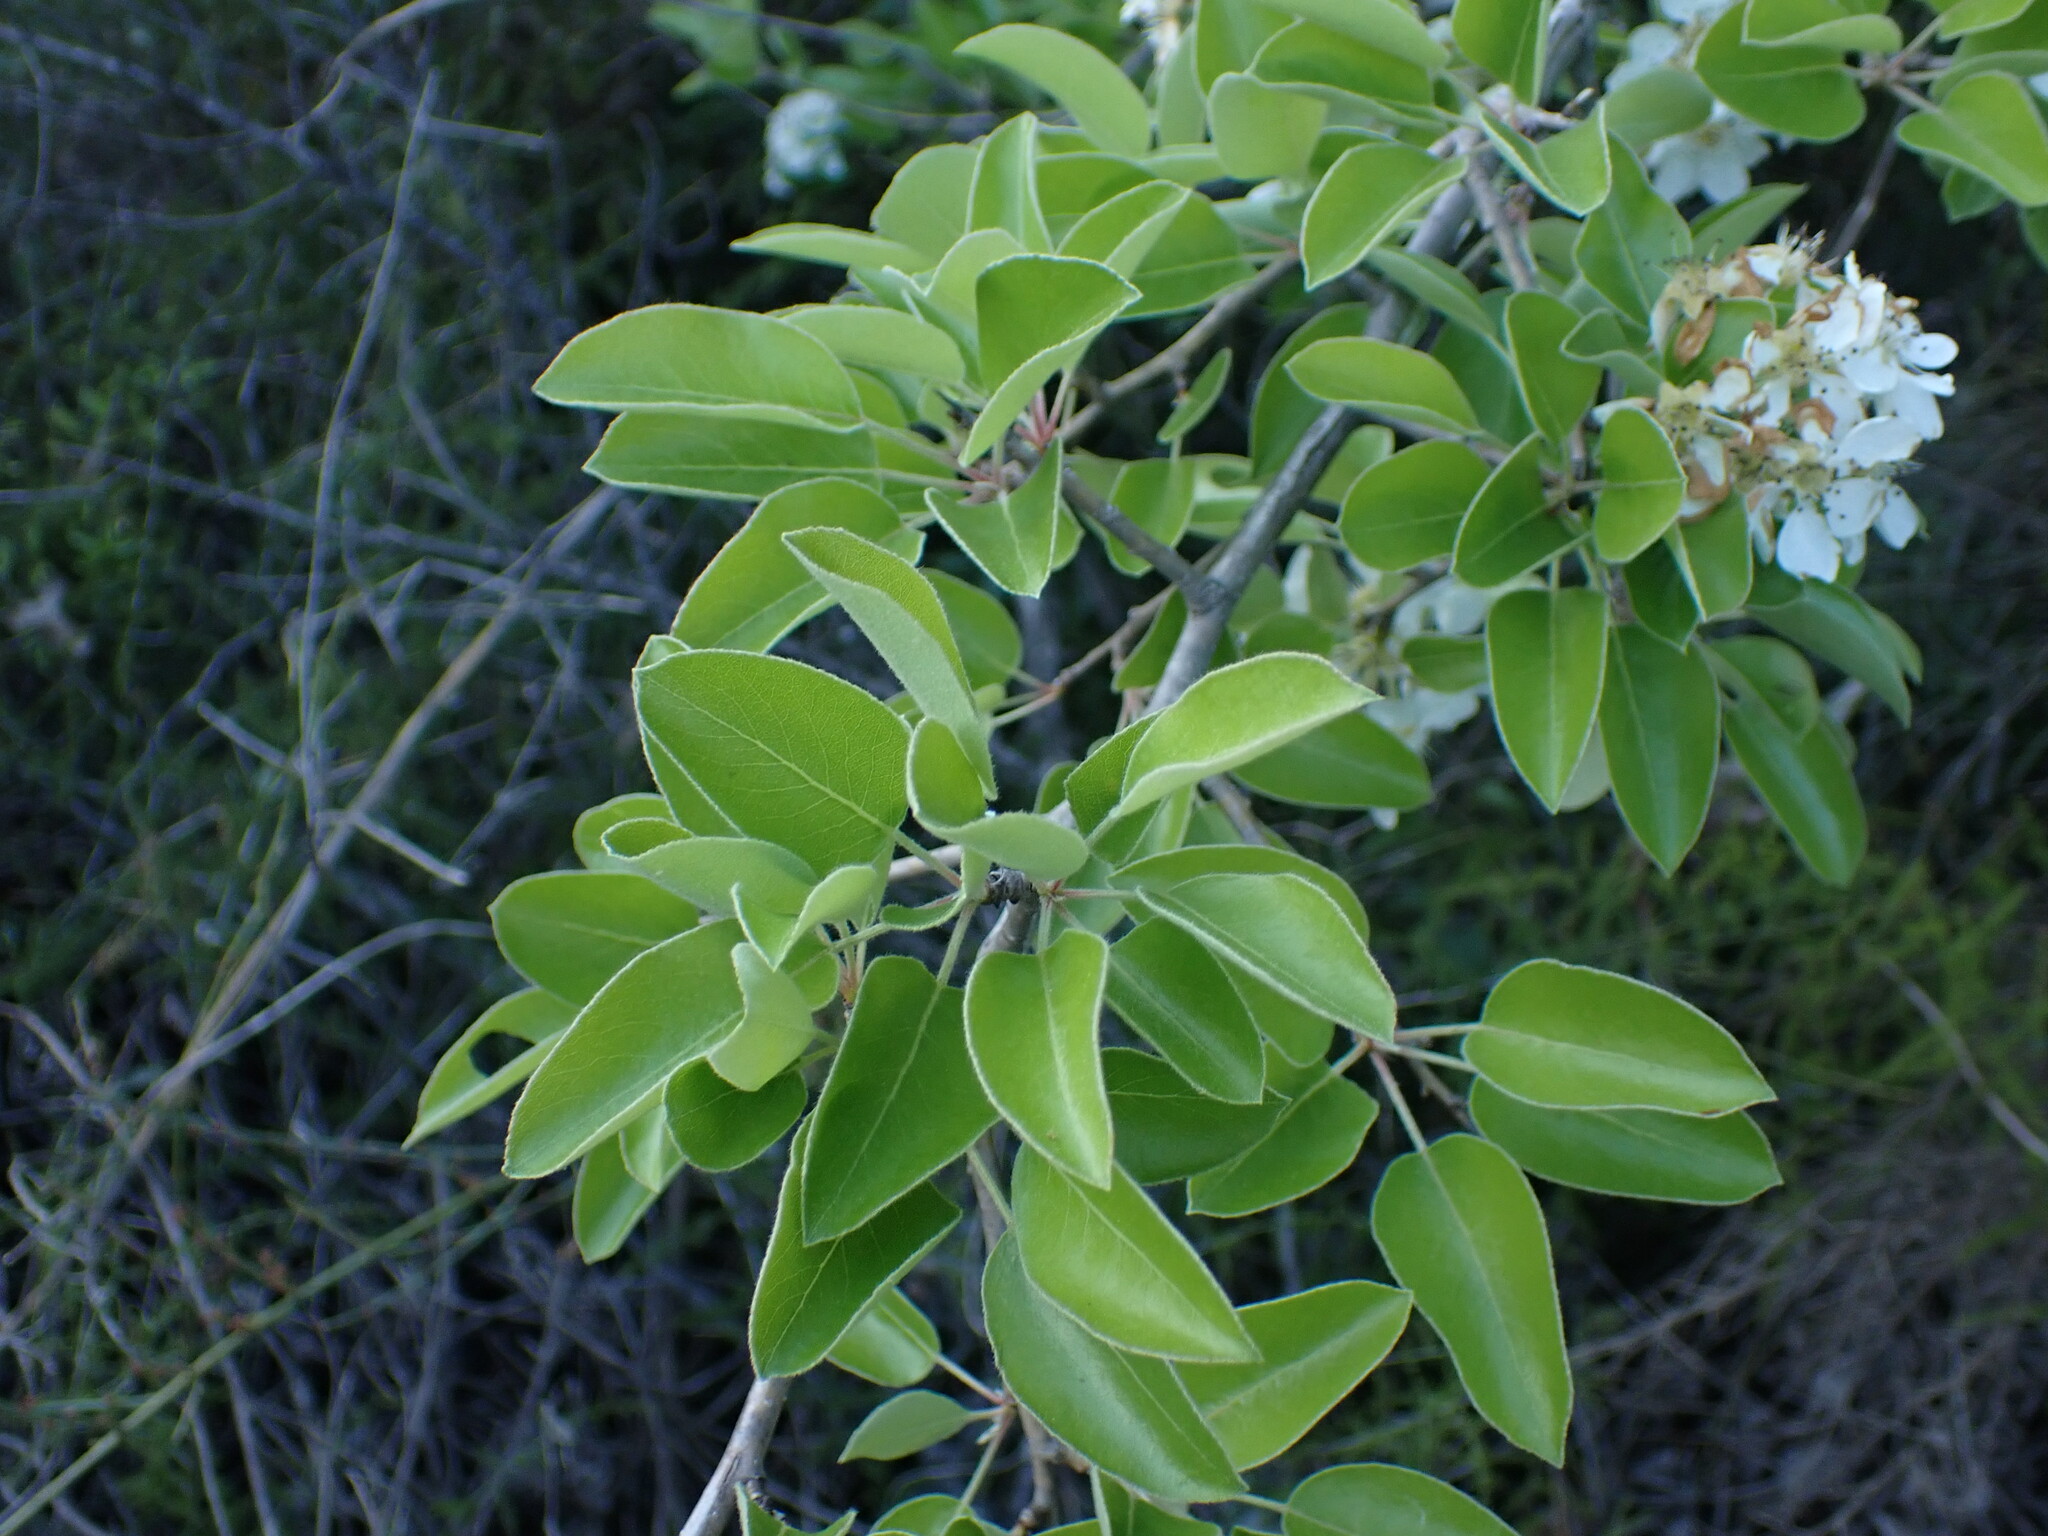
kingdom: Plantae
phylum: Tracheophyta
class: Magnoliopsida
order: Rosales
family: Rosaceae
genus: Pyrus
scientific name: Pyrus spinosa
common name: Almond-leaf pear
